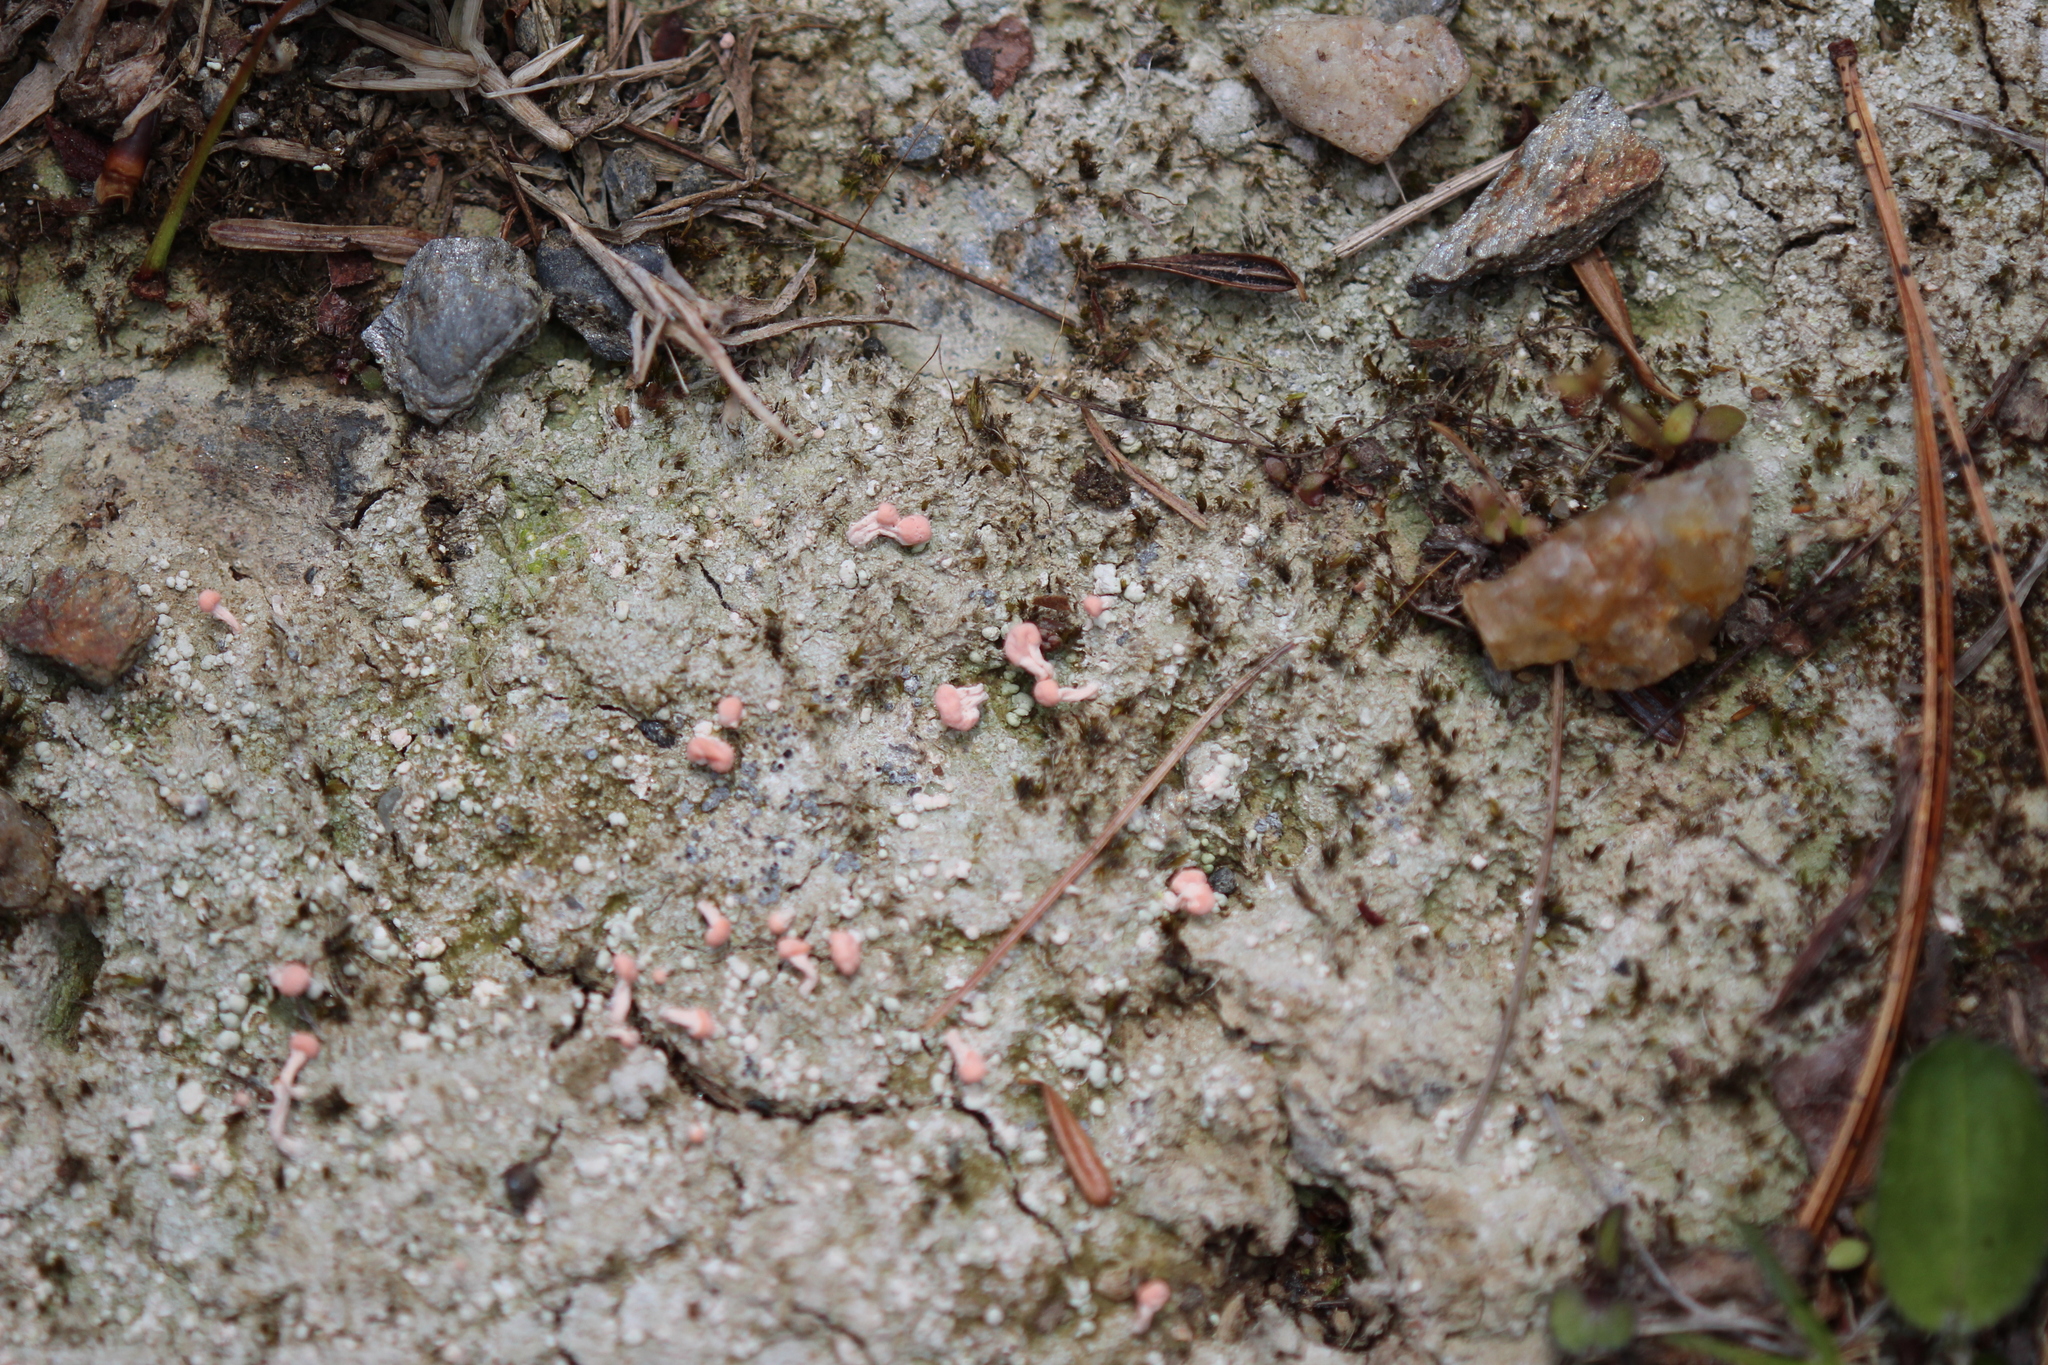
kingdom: Fungi
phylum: Ascomycota
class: Lecanoromycetes
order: Pertusariales
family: Icmadophilaceae
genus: Dibaeis
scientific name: Dibaeis baeomyces
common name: Pink earth lichen
